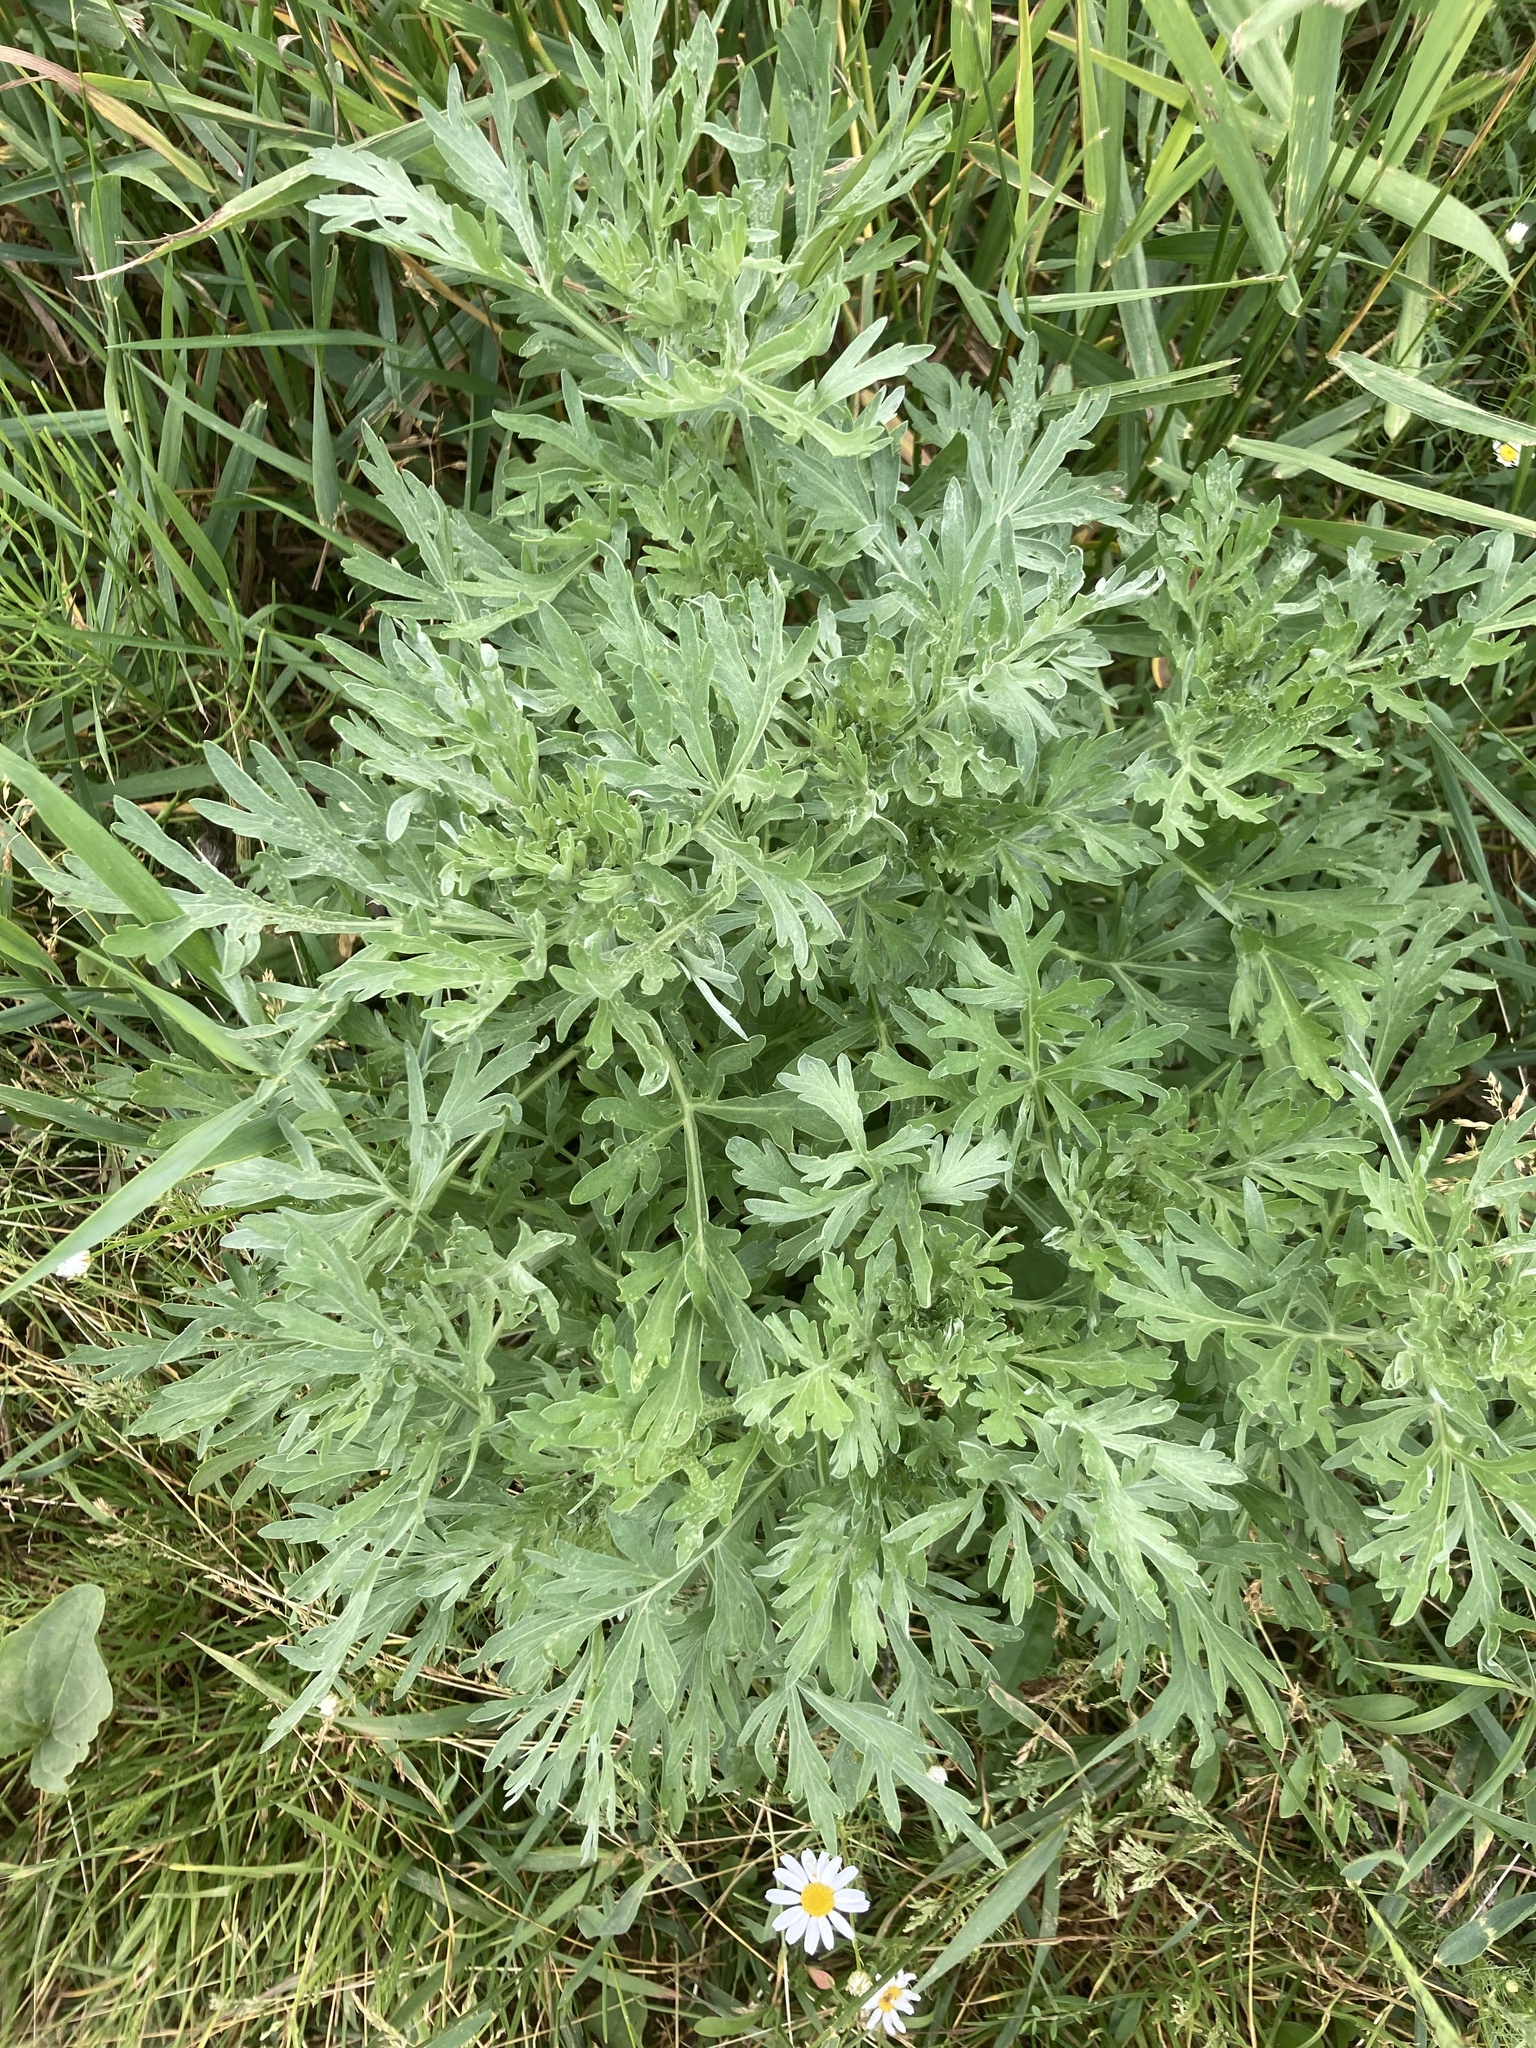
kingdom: Plantae
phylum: Tracheophyta
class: Magnoliopsida
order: Asterales
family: Asteraceae
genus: Artemisia
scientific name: Artemisia absinthium
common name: Wormwood
